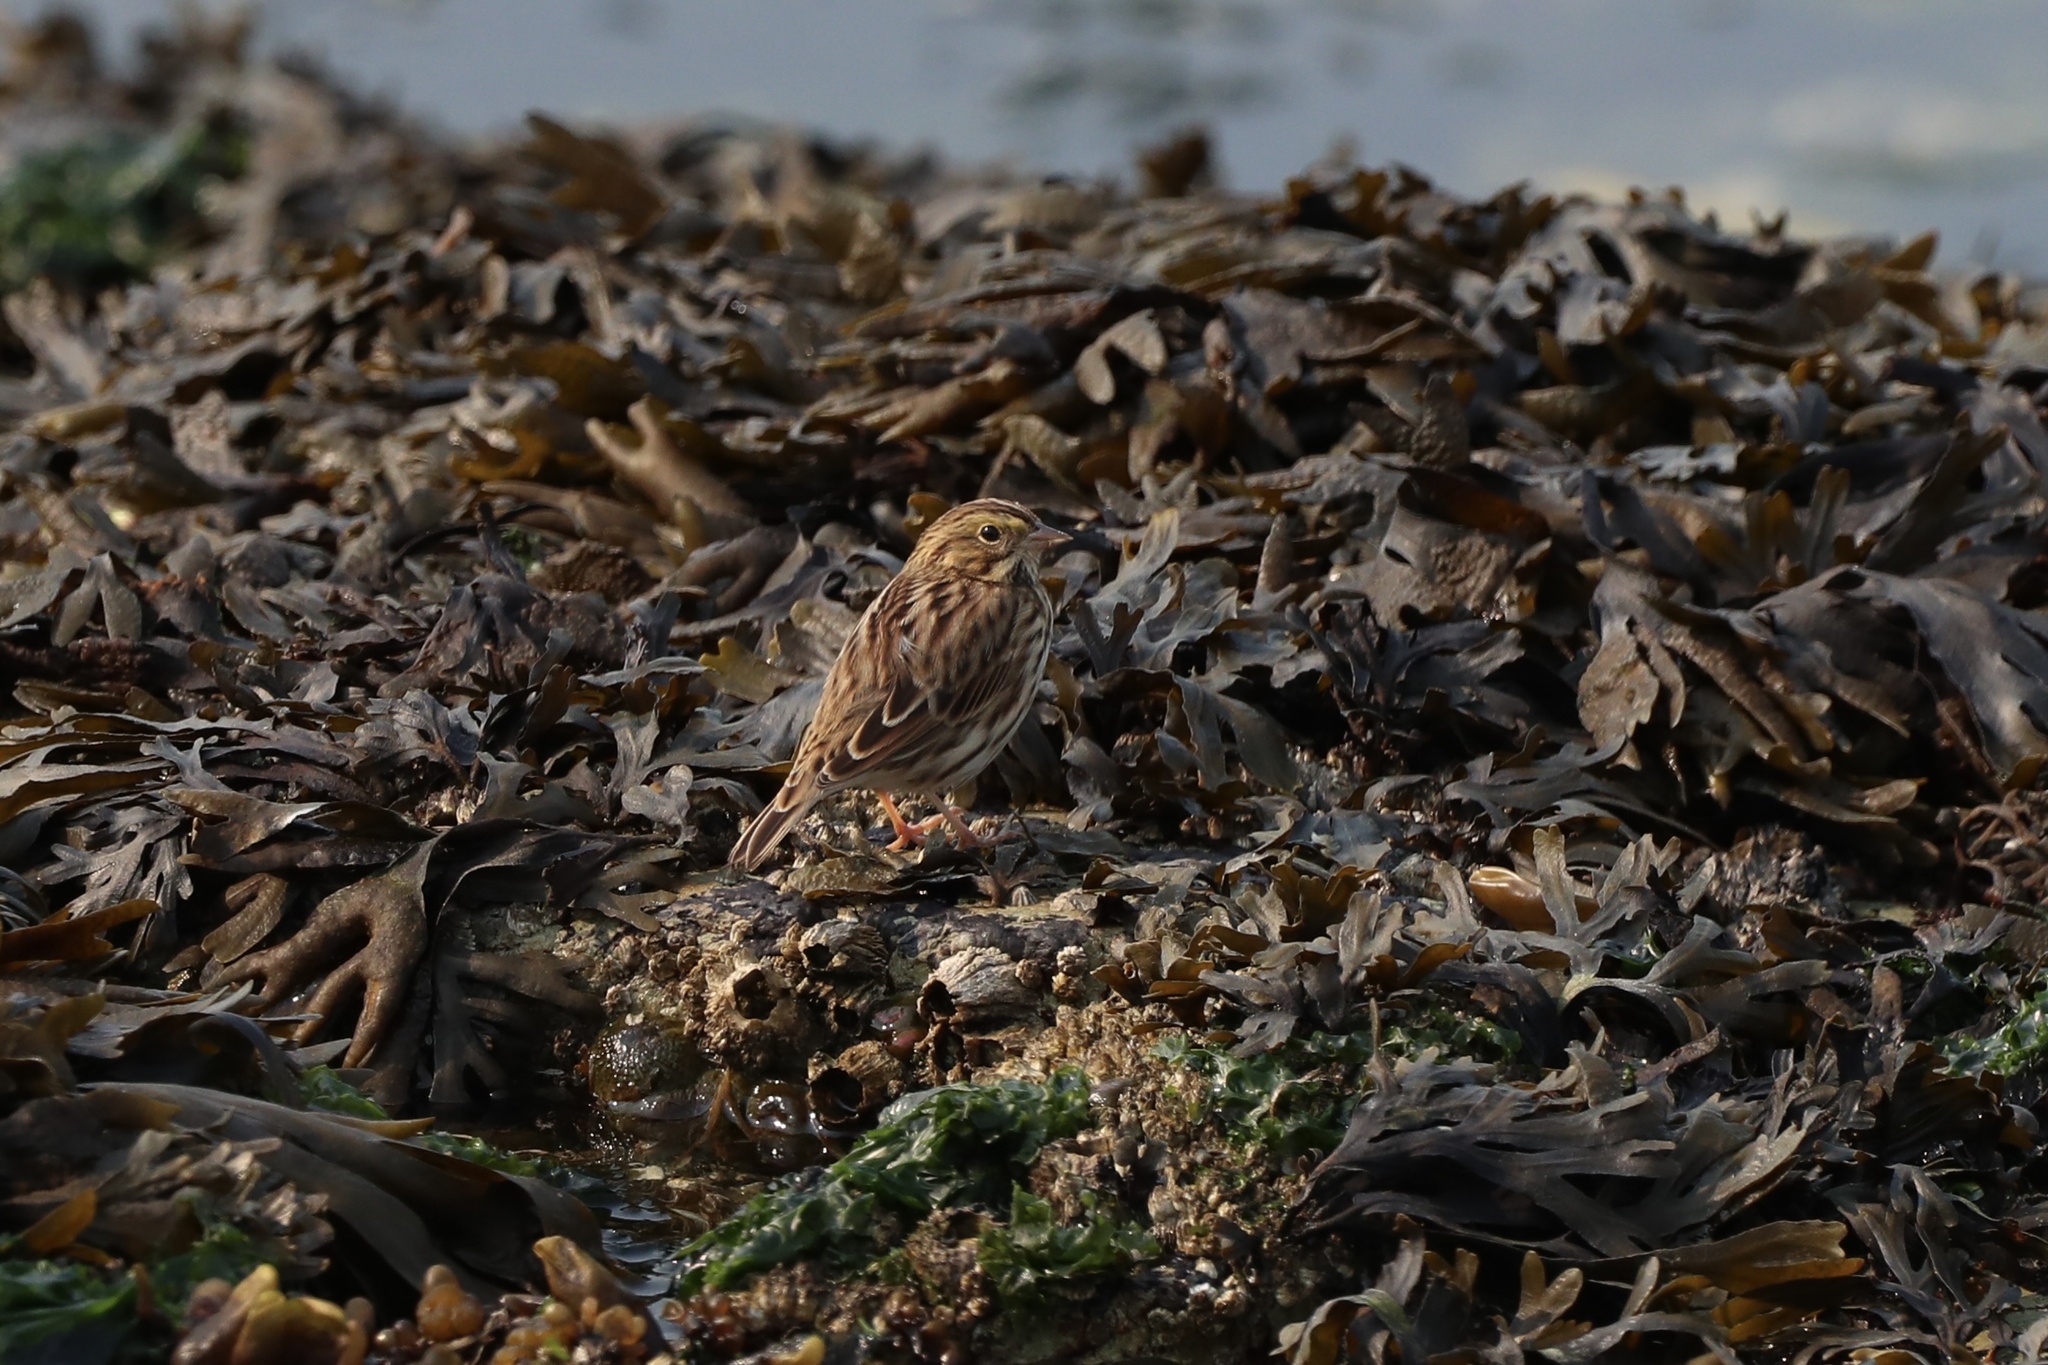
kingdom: Animalia
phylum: Chordata
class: Aves
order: Passeriformes
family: Passerellidae
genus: Passerculus
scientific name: Passerculus sandwichensis
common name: Savannah sparrow
